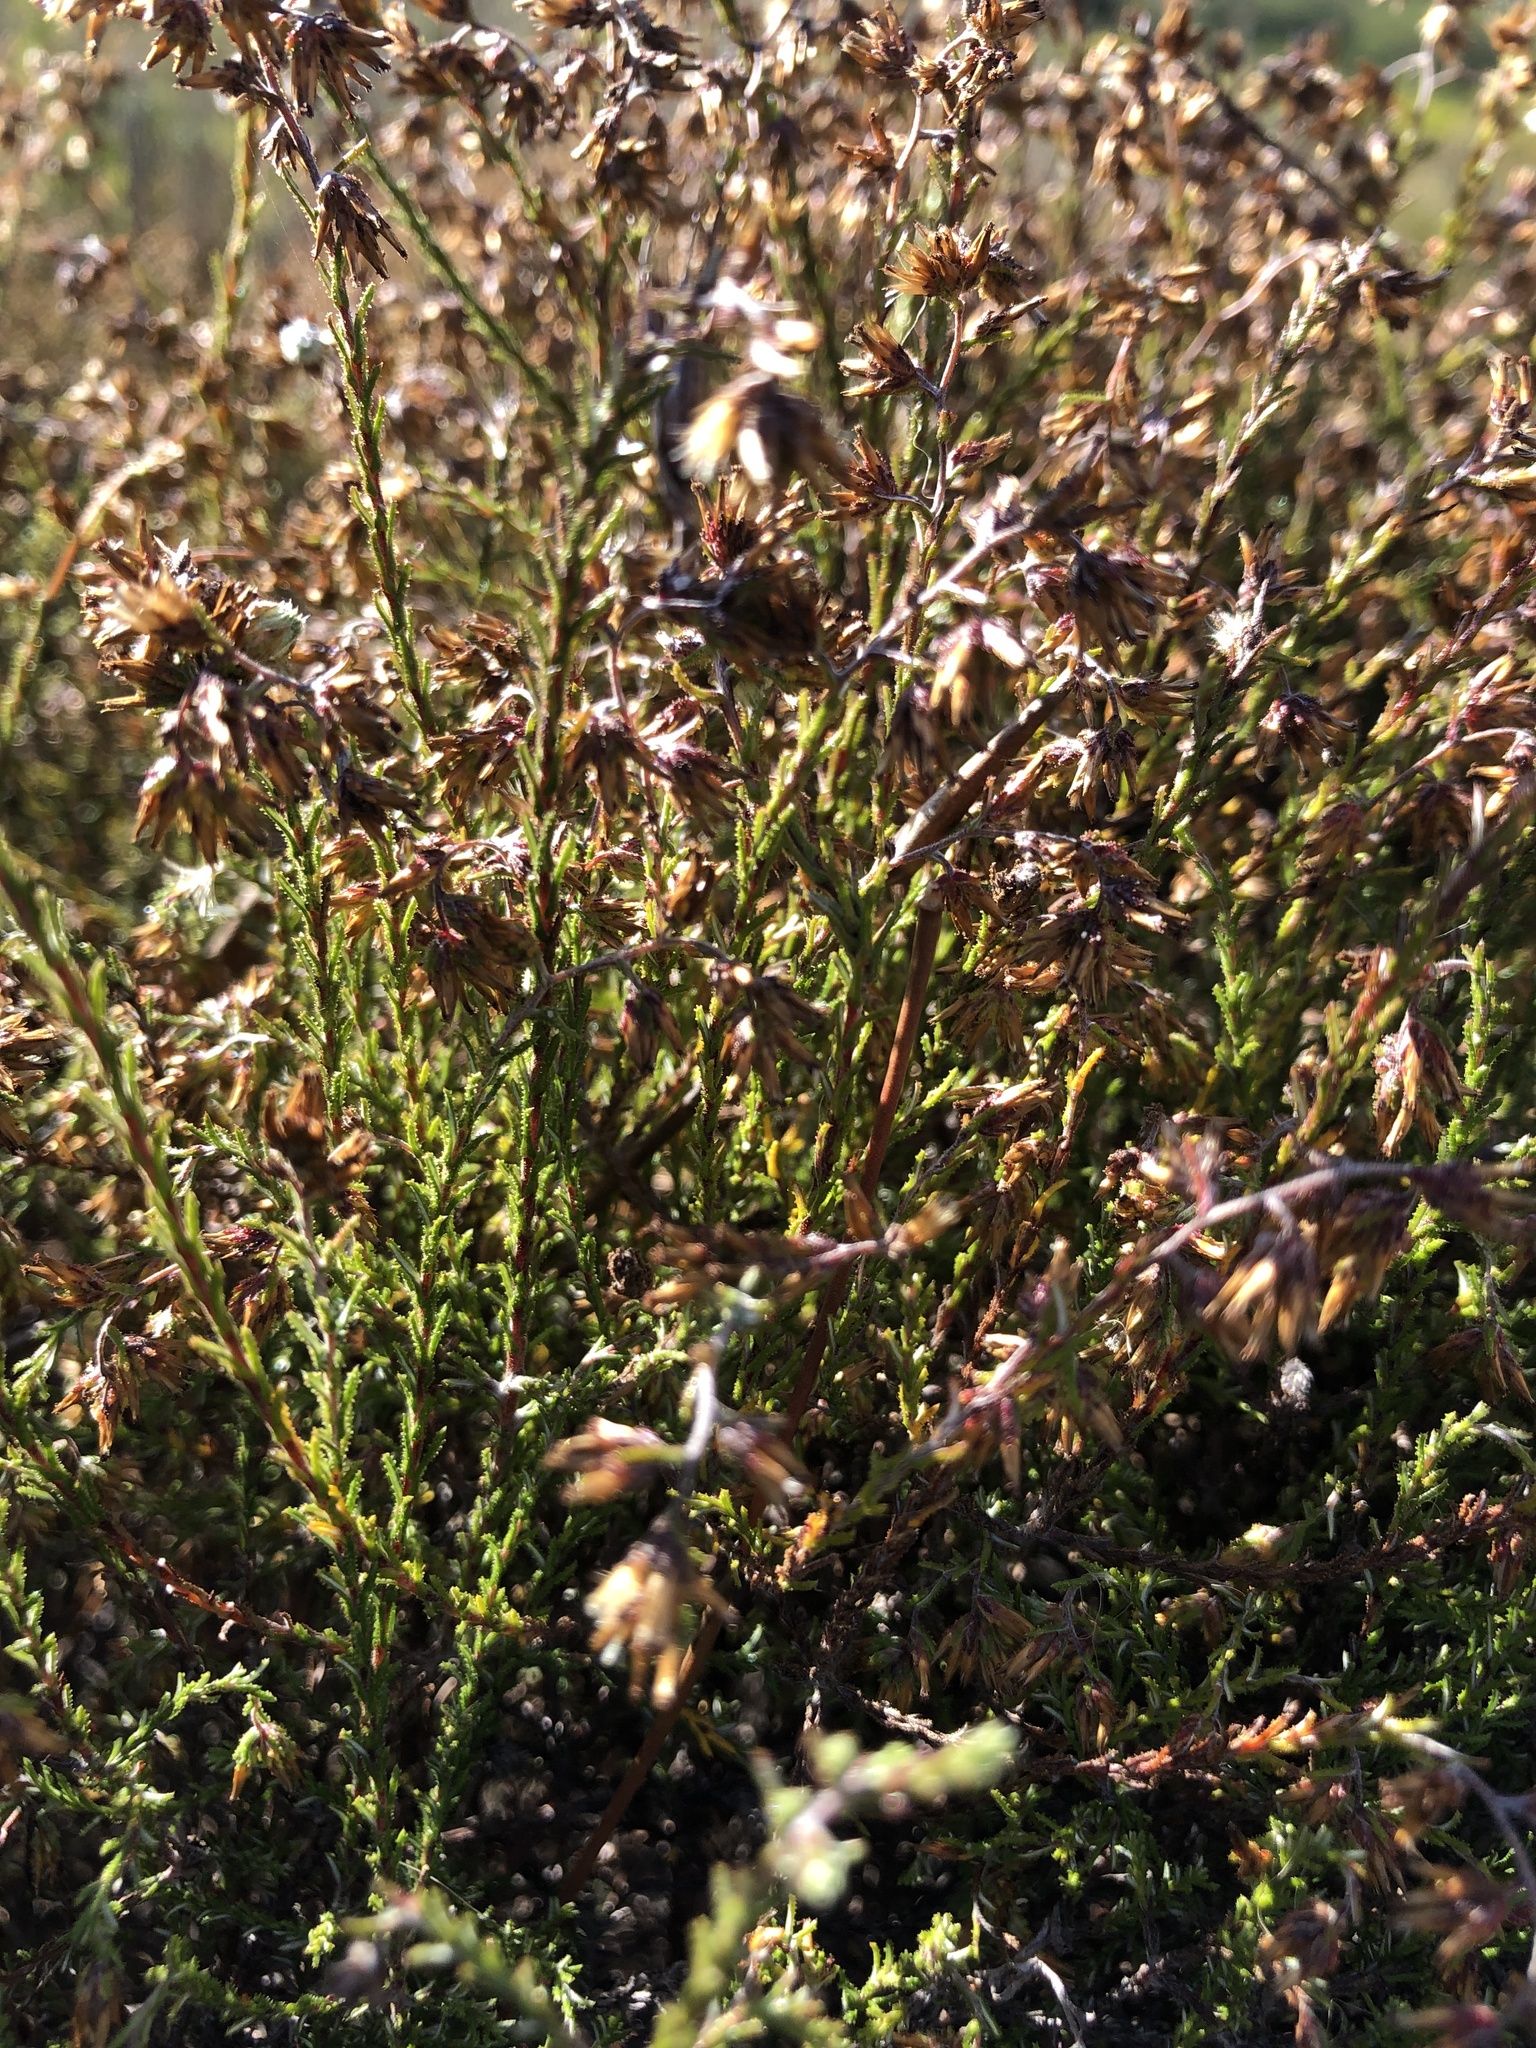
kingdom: Plantae
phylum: Tracheophyta
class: Magnoliopsida
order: Asterales
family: Asteraceae
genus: Myrovernix
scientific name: Myrovernix scaber
